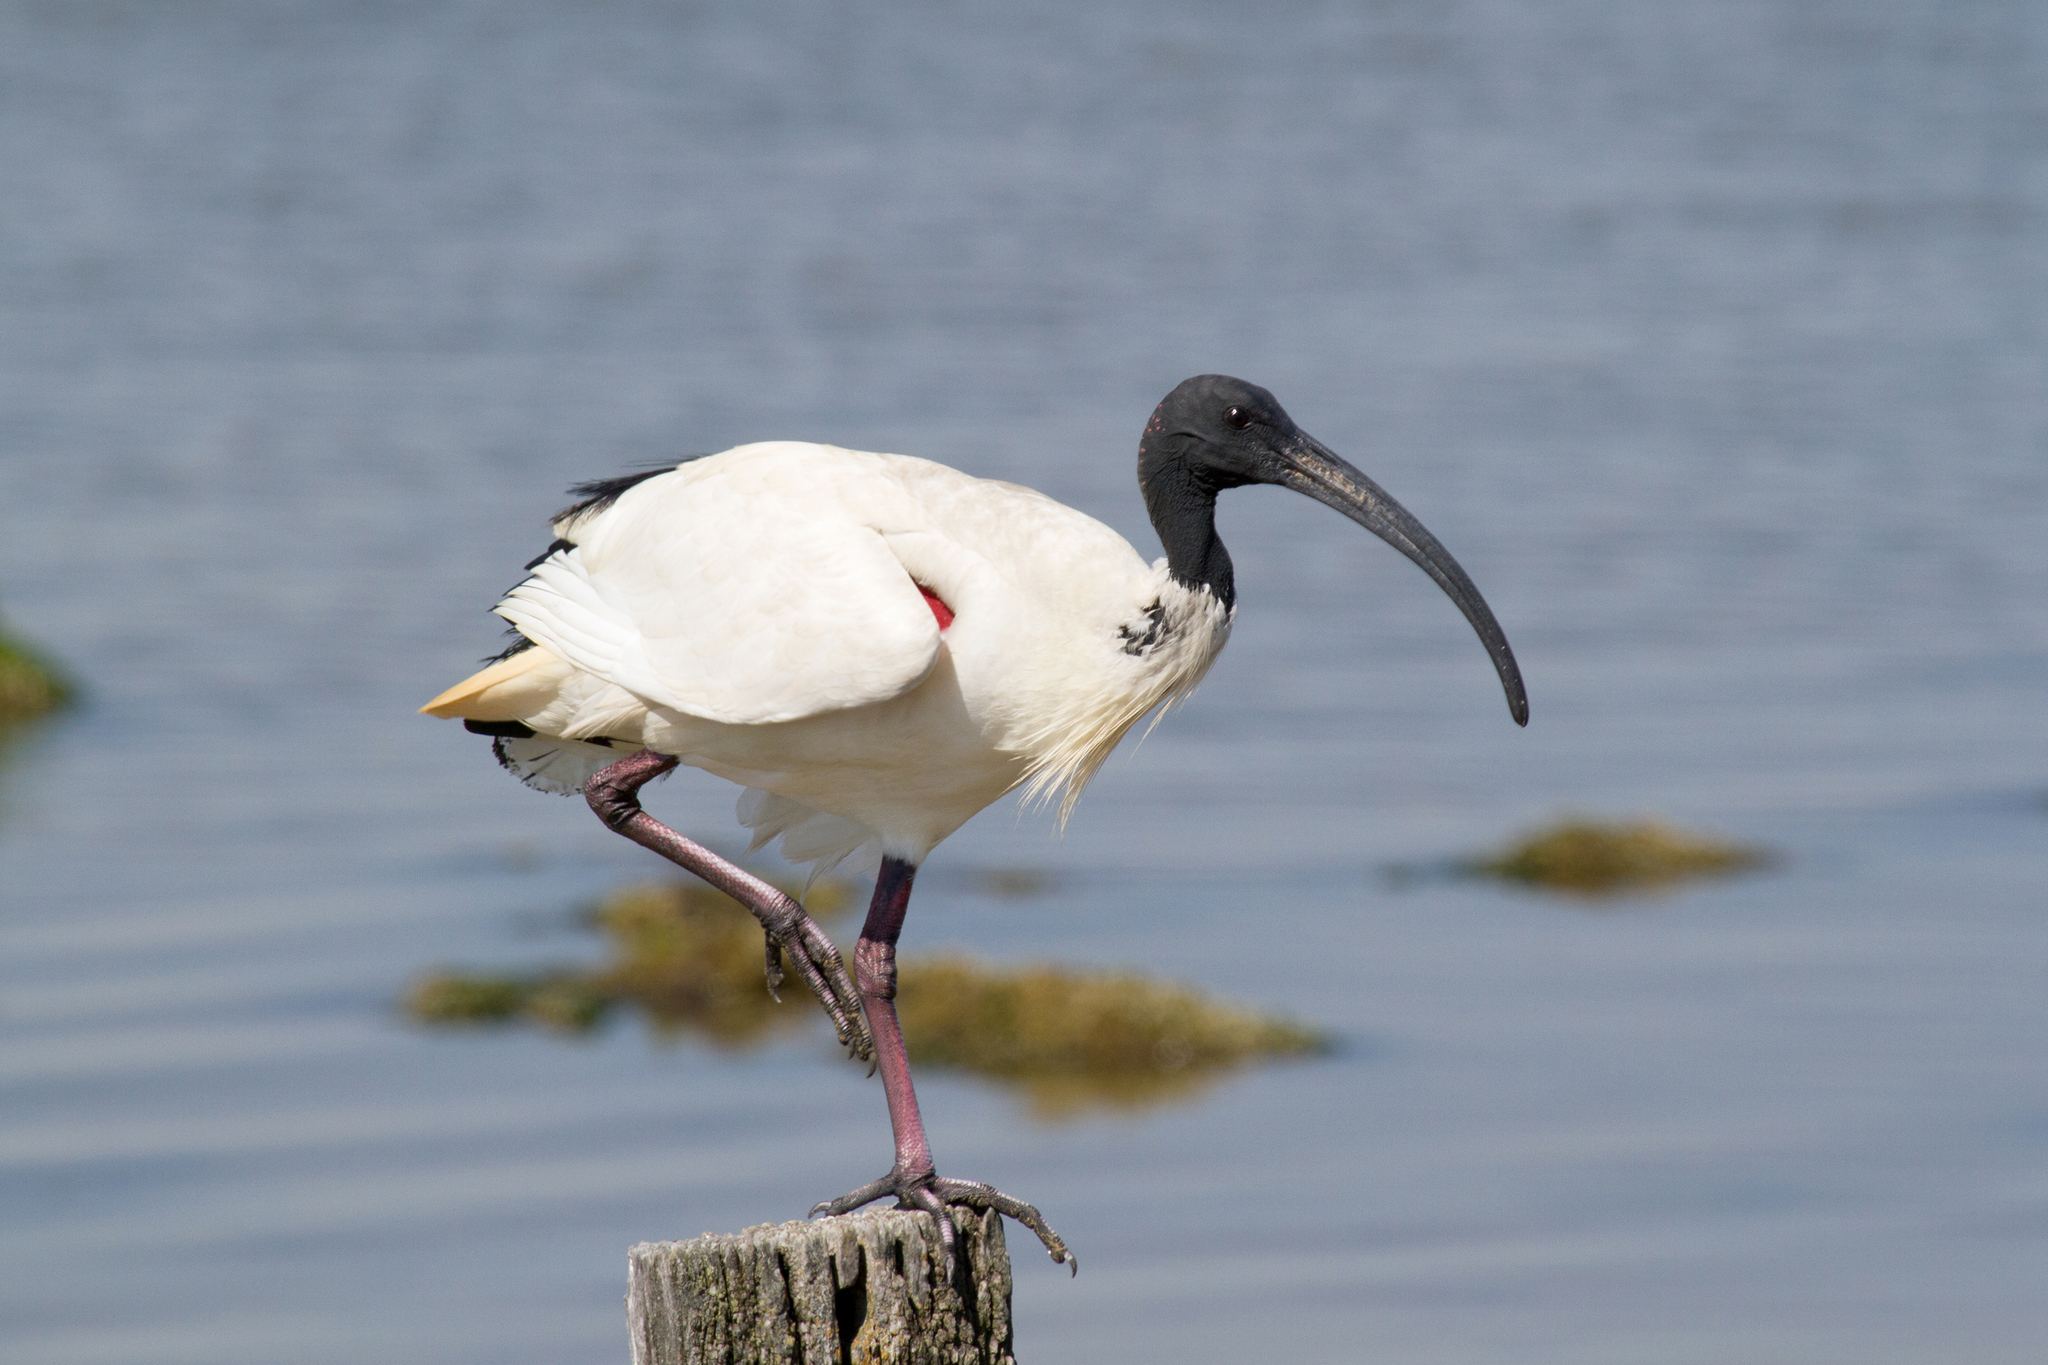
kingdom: Animalia
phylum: Chordata
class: Aves
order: Pelecaniformes
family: Threskiornithidae
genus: Threskiornis
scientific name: Threskiornis molucca
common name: Australian white ibis
